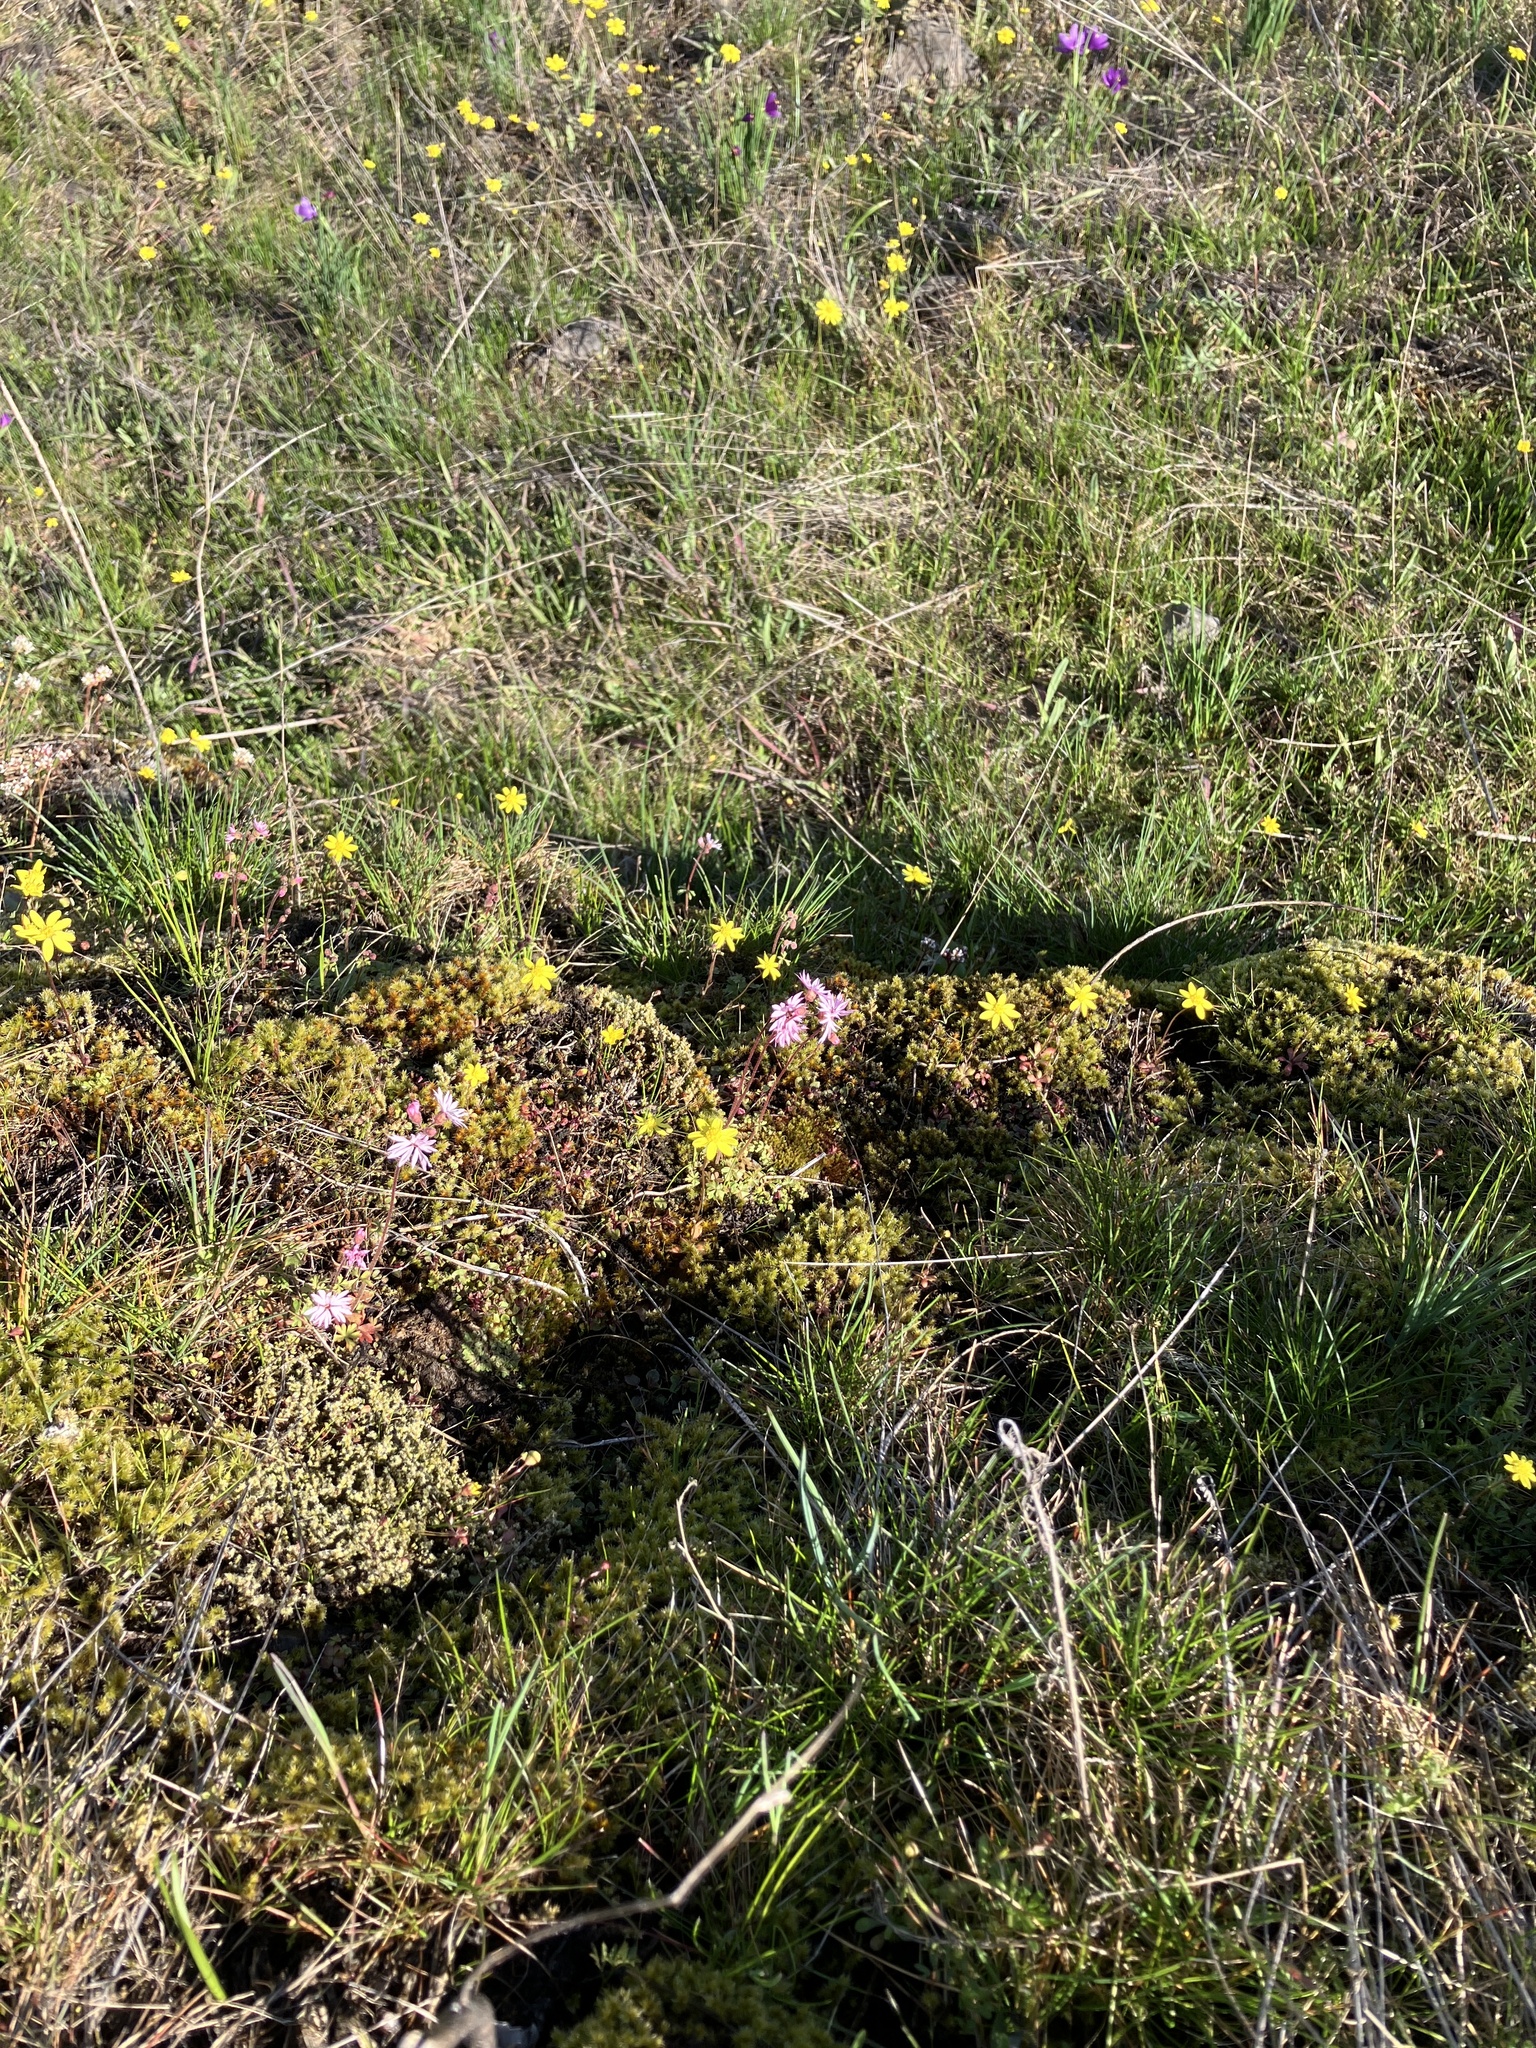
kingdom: Plantae
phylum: Tracheophyta
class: Magnoliopsida
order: Asterales
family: Asteraceae
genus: Crocidium
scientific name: Crocidium multicaule
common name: Common spring gold
